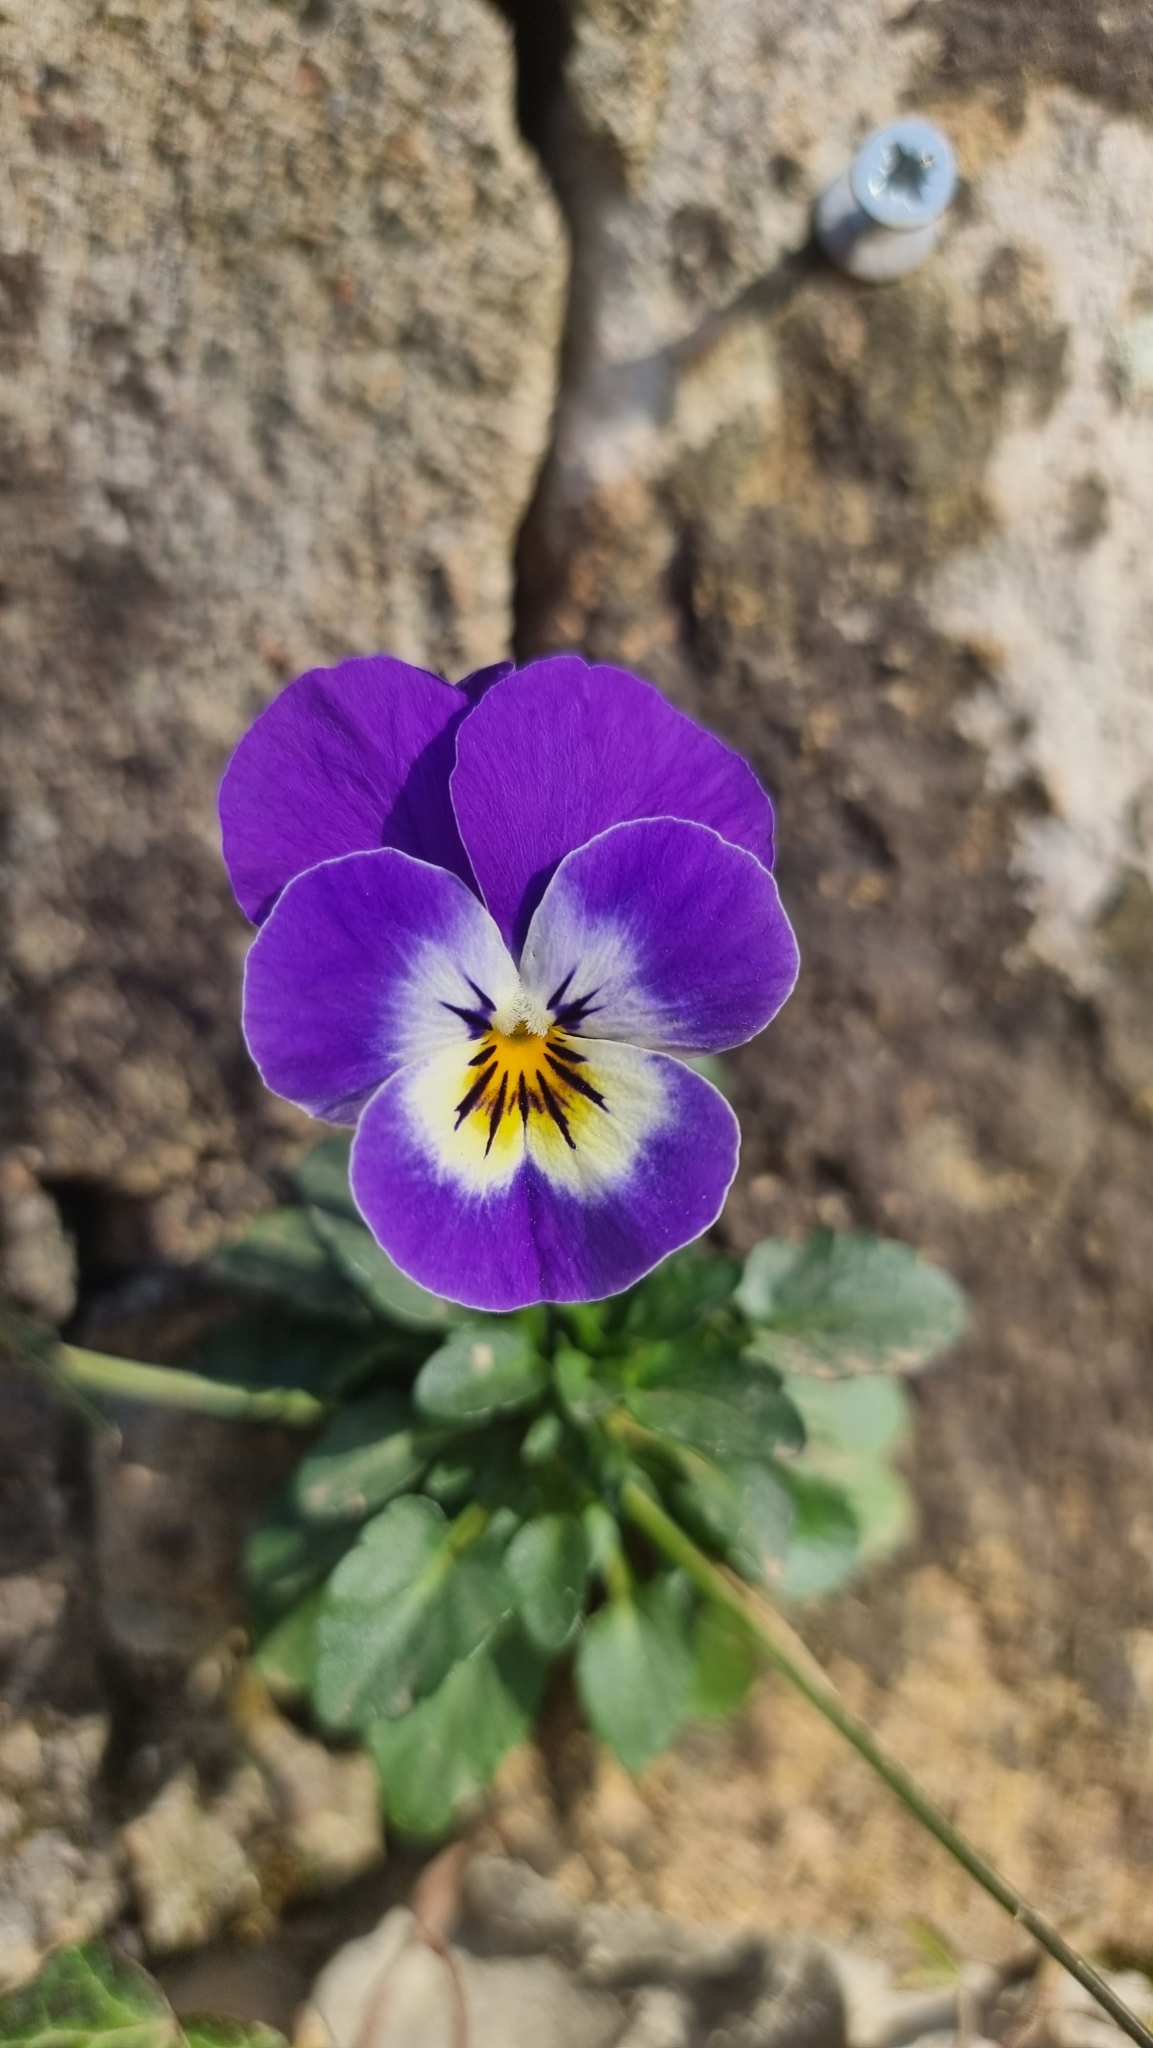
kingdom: Plantae
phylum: Tracheophyta
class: Magnoliopsida
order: Malpighiales
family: Violaceae
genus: Viola
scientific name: Viola wittrockiana
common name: Garden pansy
